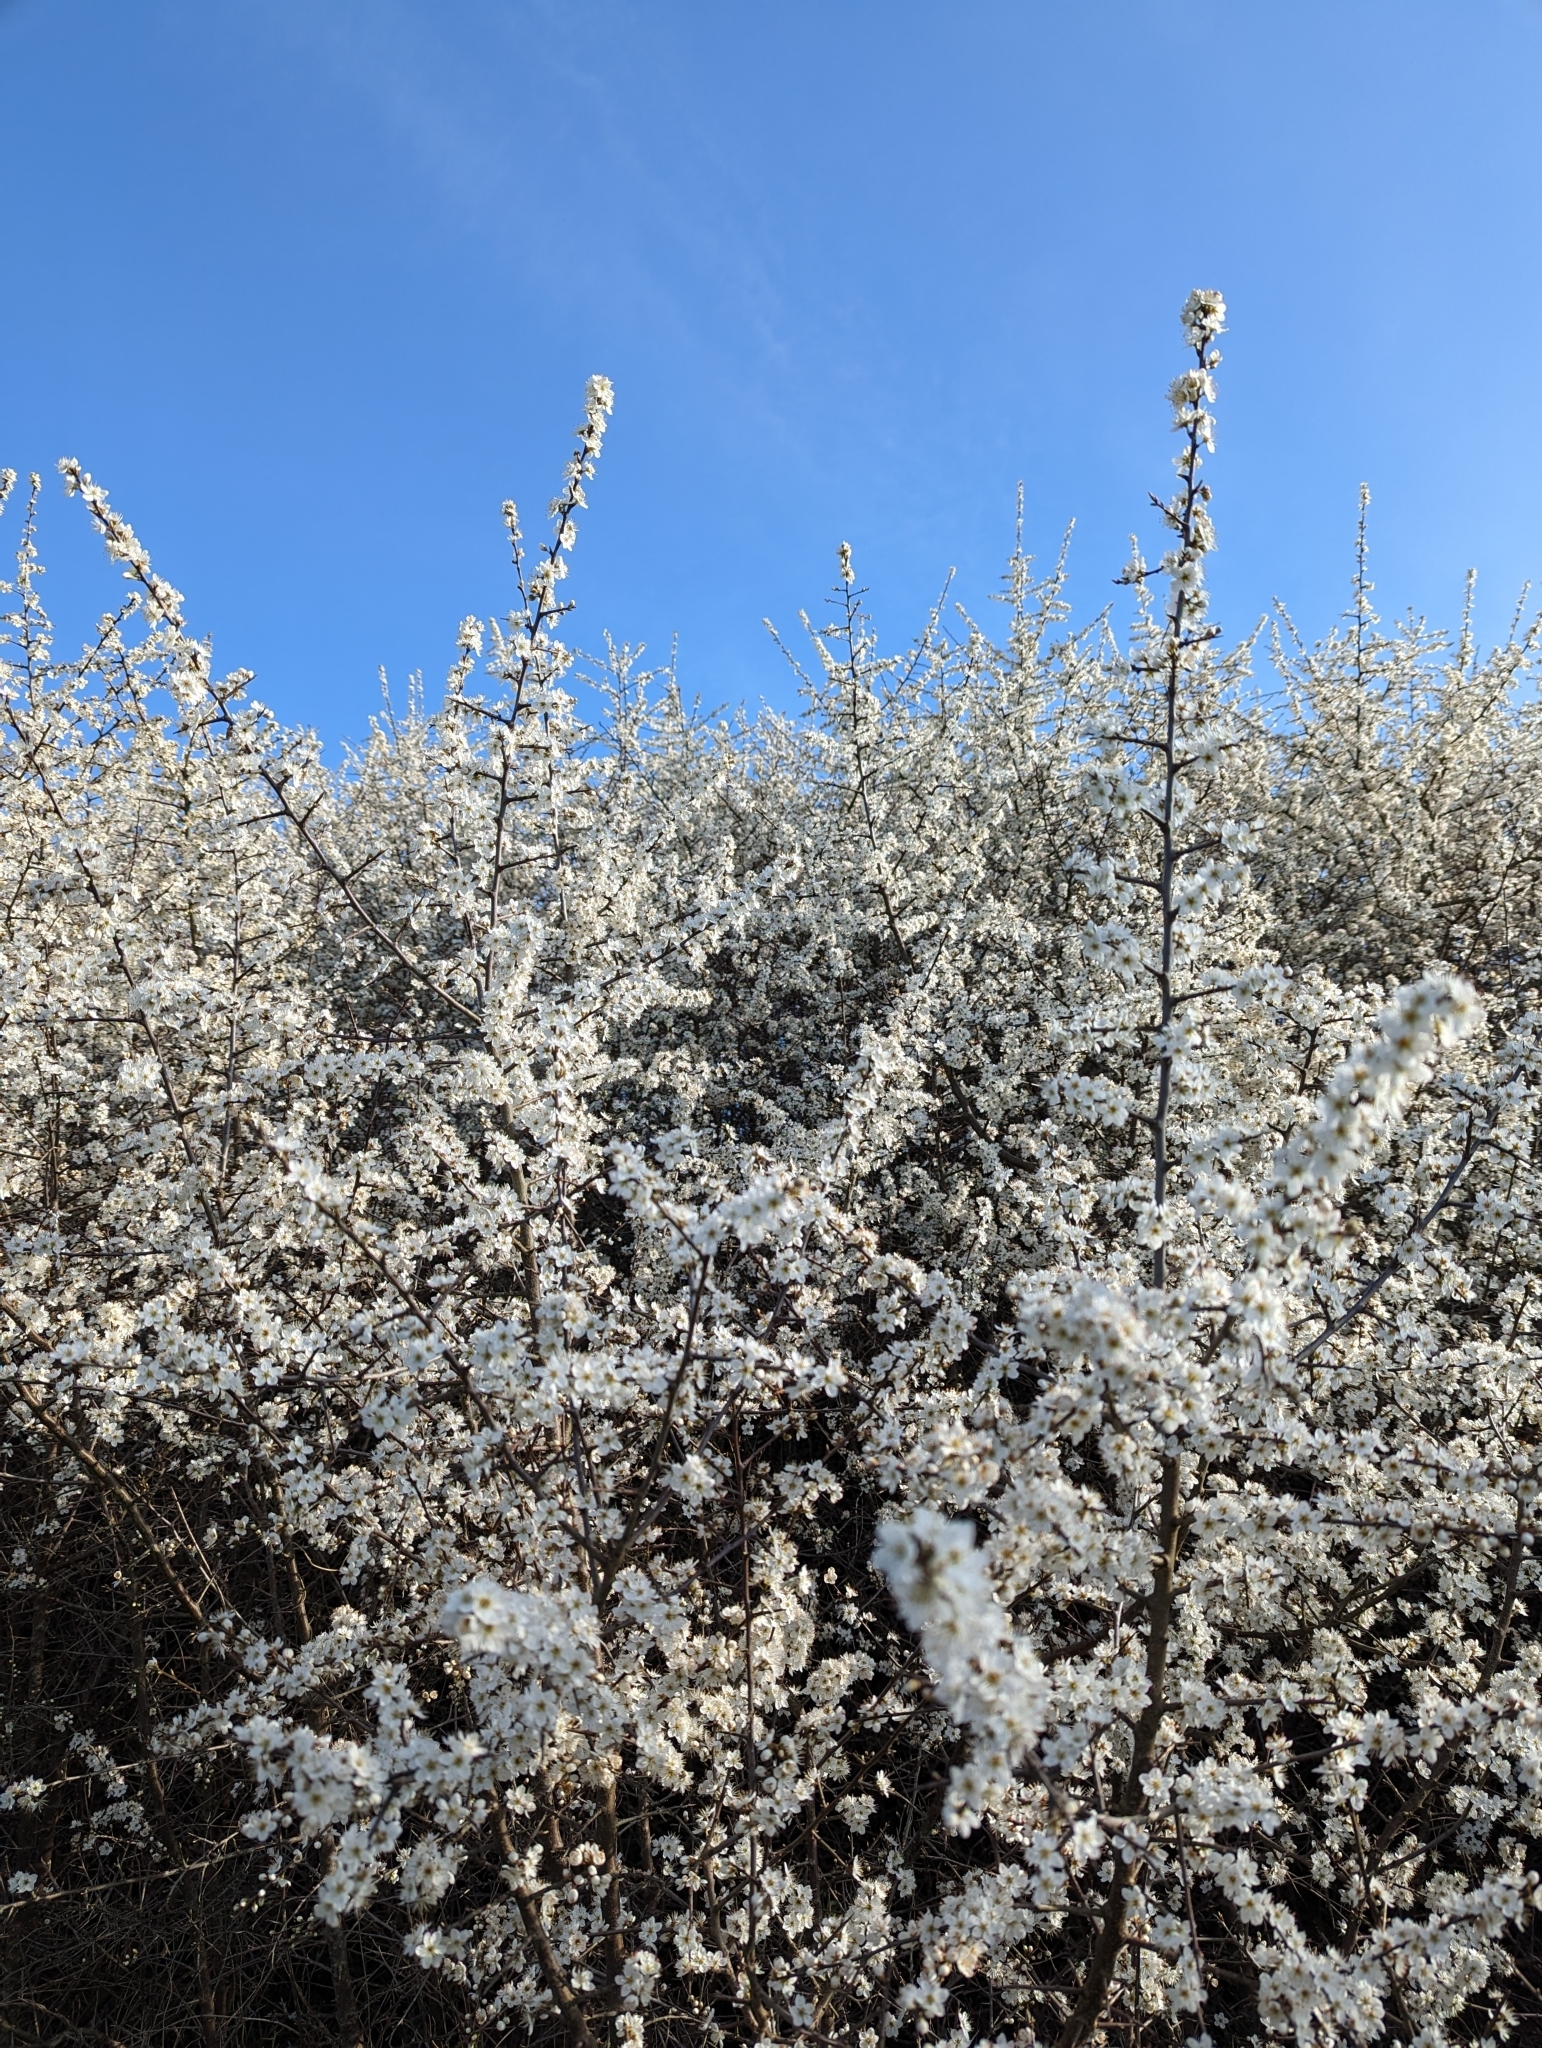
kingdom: Plantae
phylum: Tracheophyta
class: Magnoliopsida
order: Rosales
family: Rosaceae
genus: Prunus
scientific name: Prunus spinosa
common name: Blackthorn
